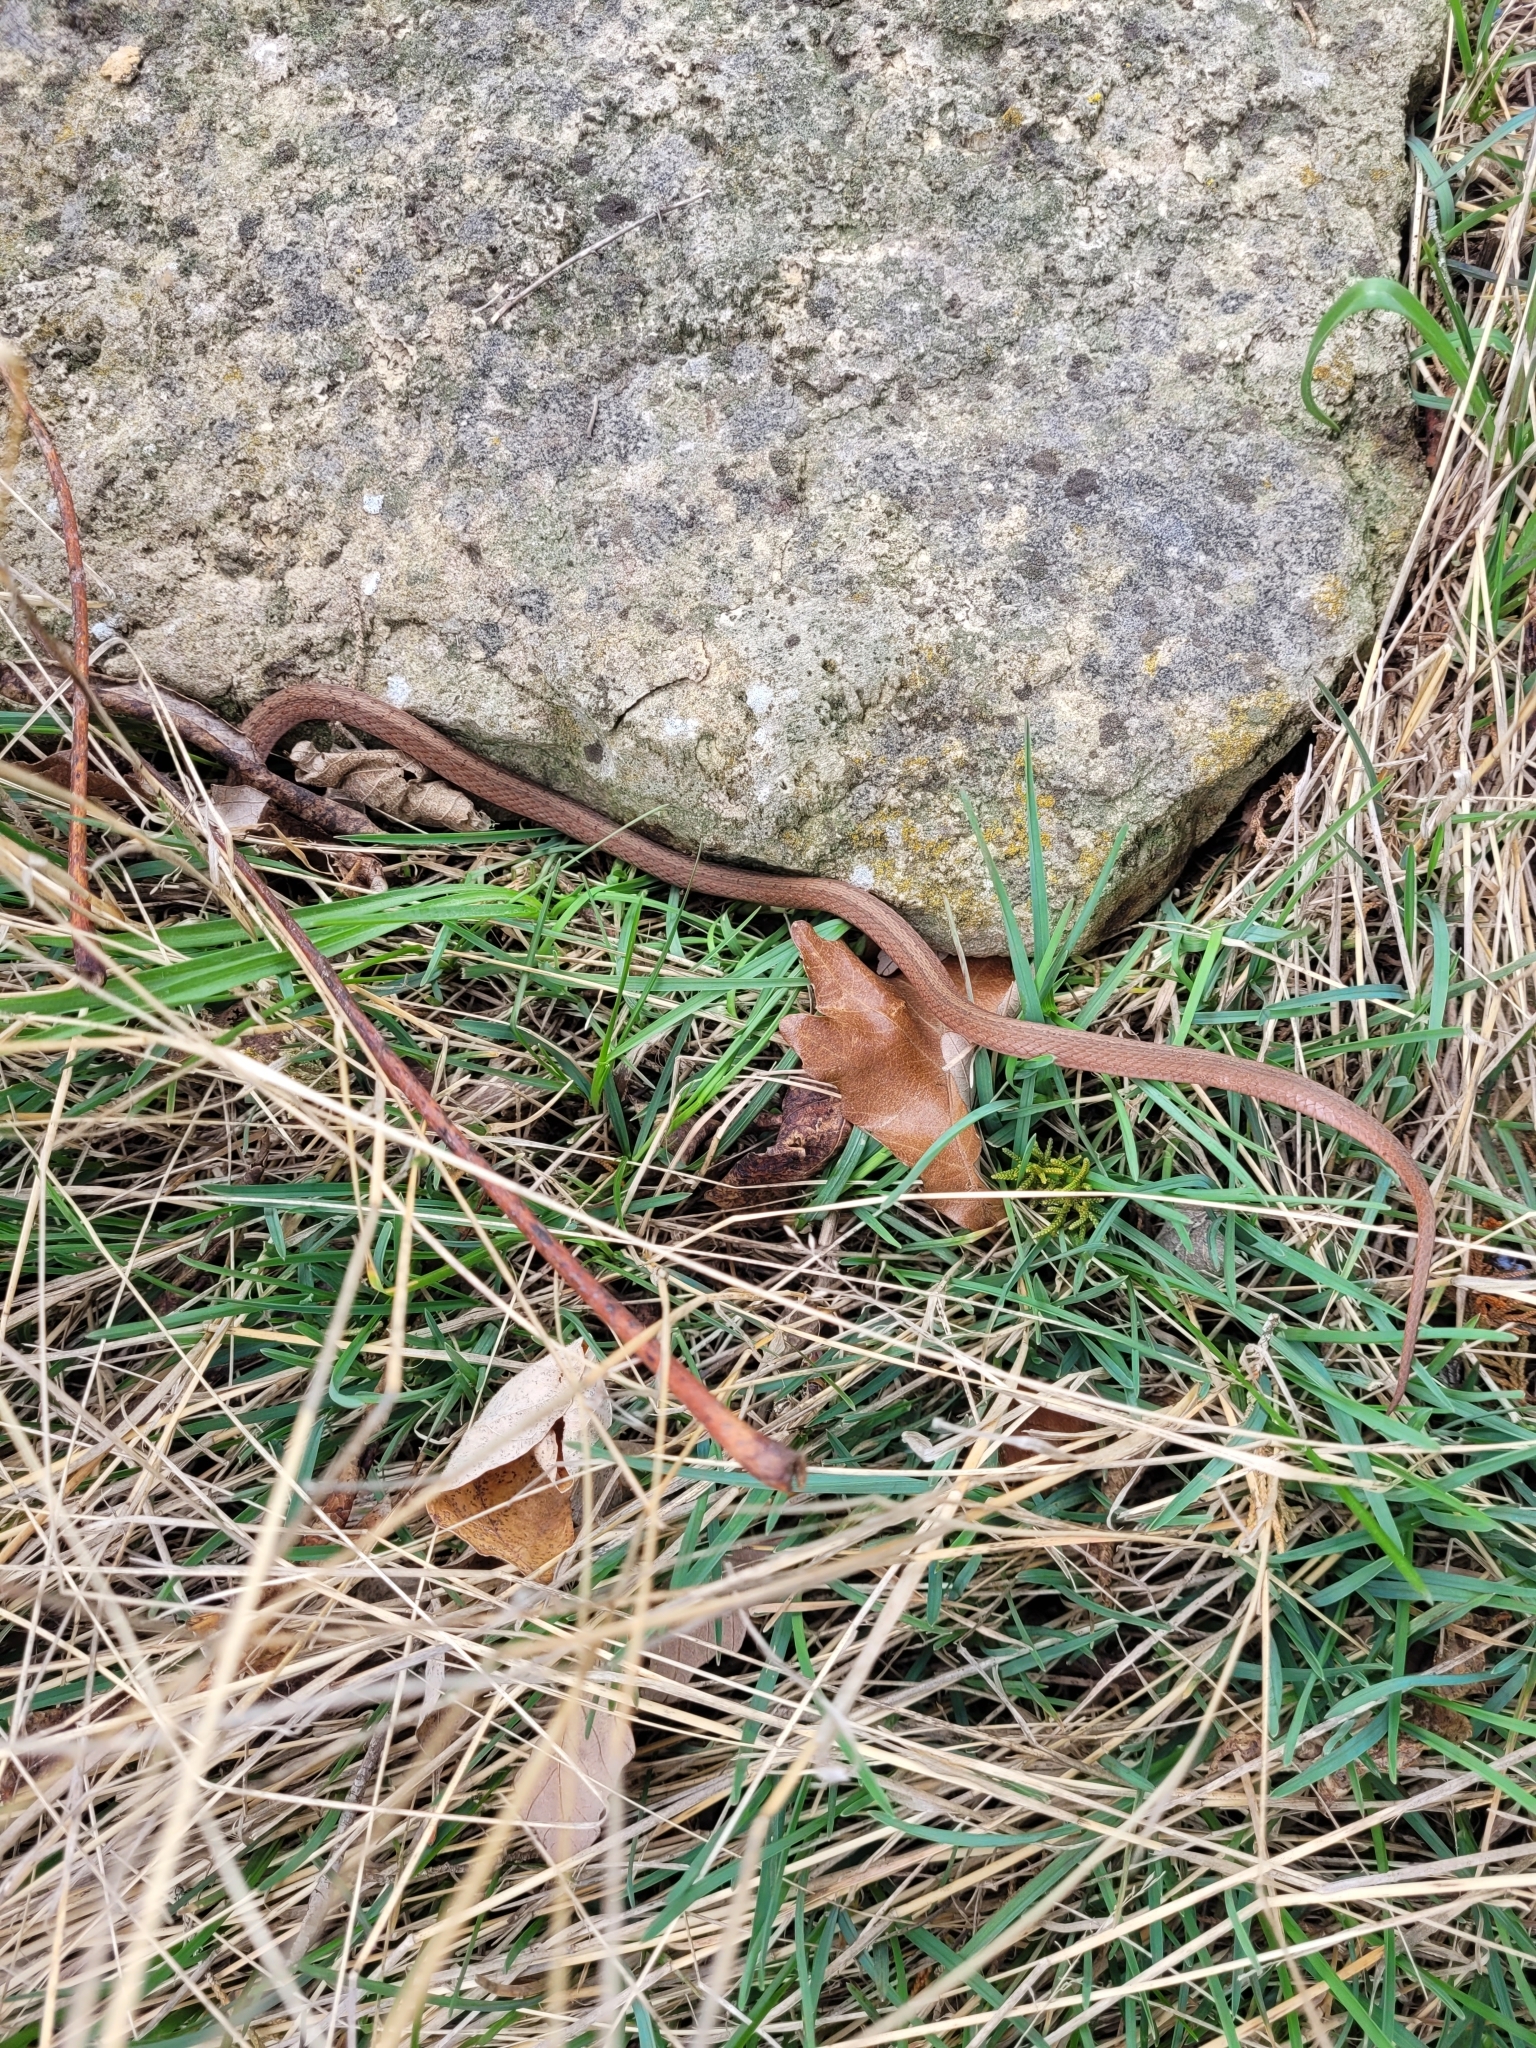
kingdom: Animalia
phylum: Chordata
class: Squamata
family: Colubridae
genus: Storeria
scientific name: Storeria dekayi
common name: (dekay’s) brown snake
